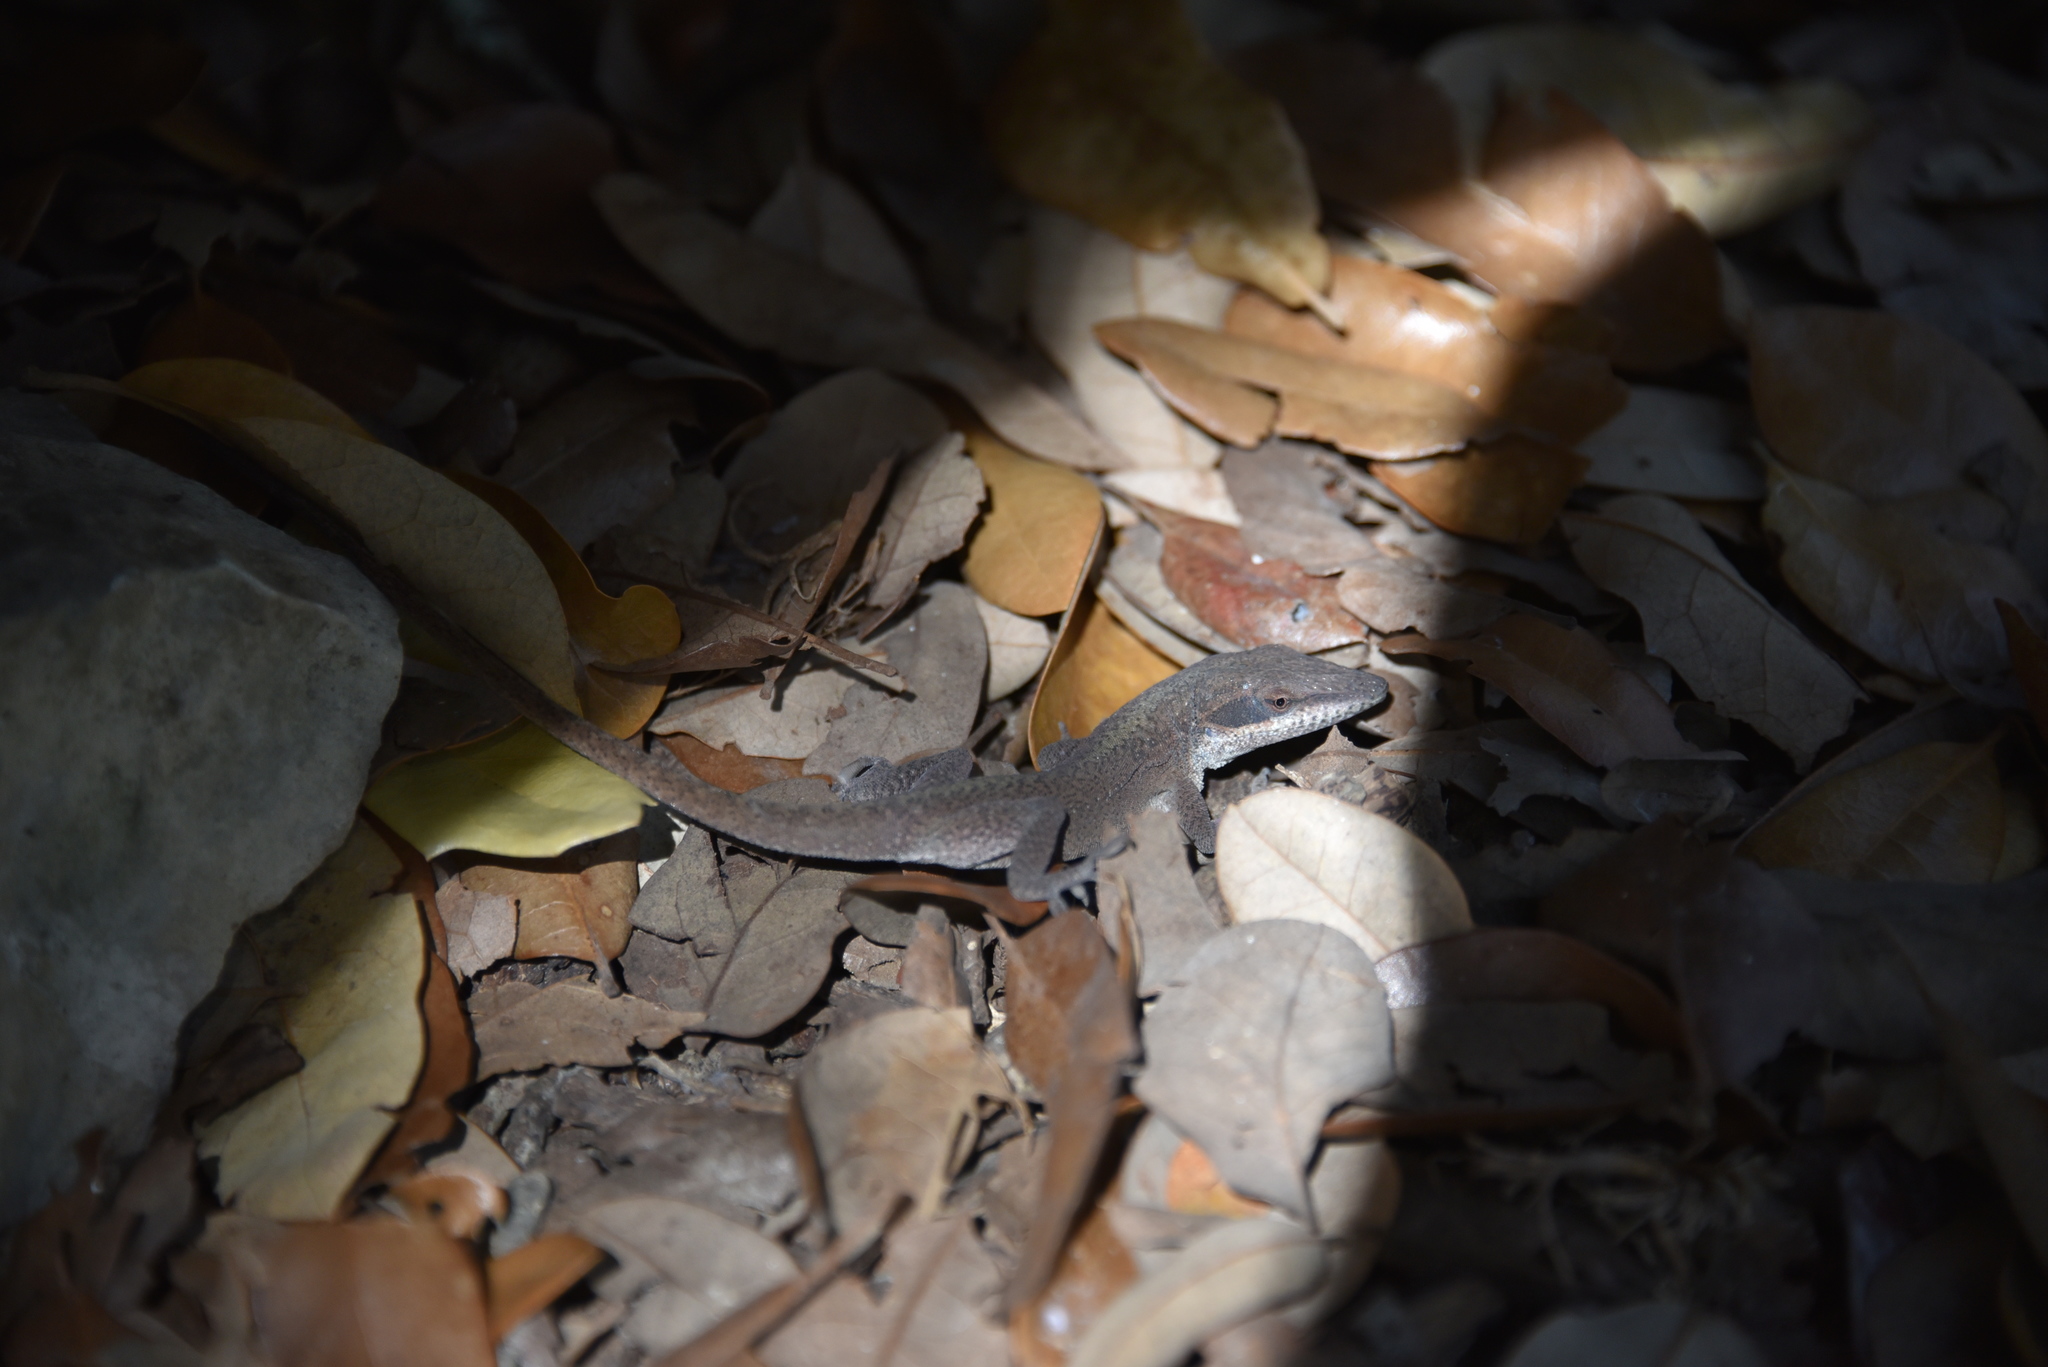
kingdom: Animalia
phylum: Chordata
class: Squamata
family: Dactyloidae
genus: Anolis
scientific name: Anolis carolinensis
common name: Green anole
